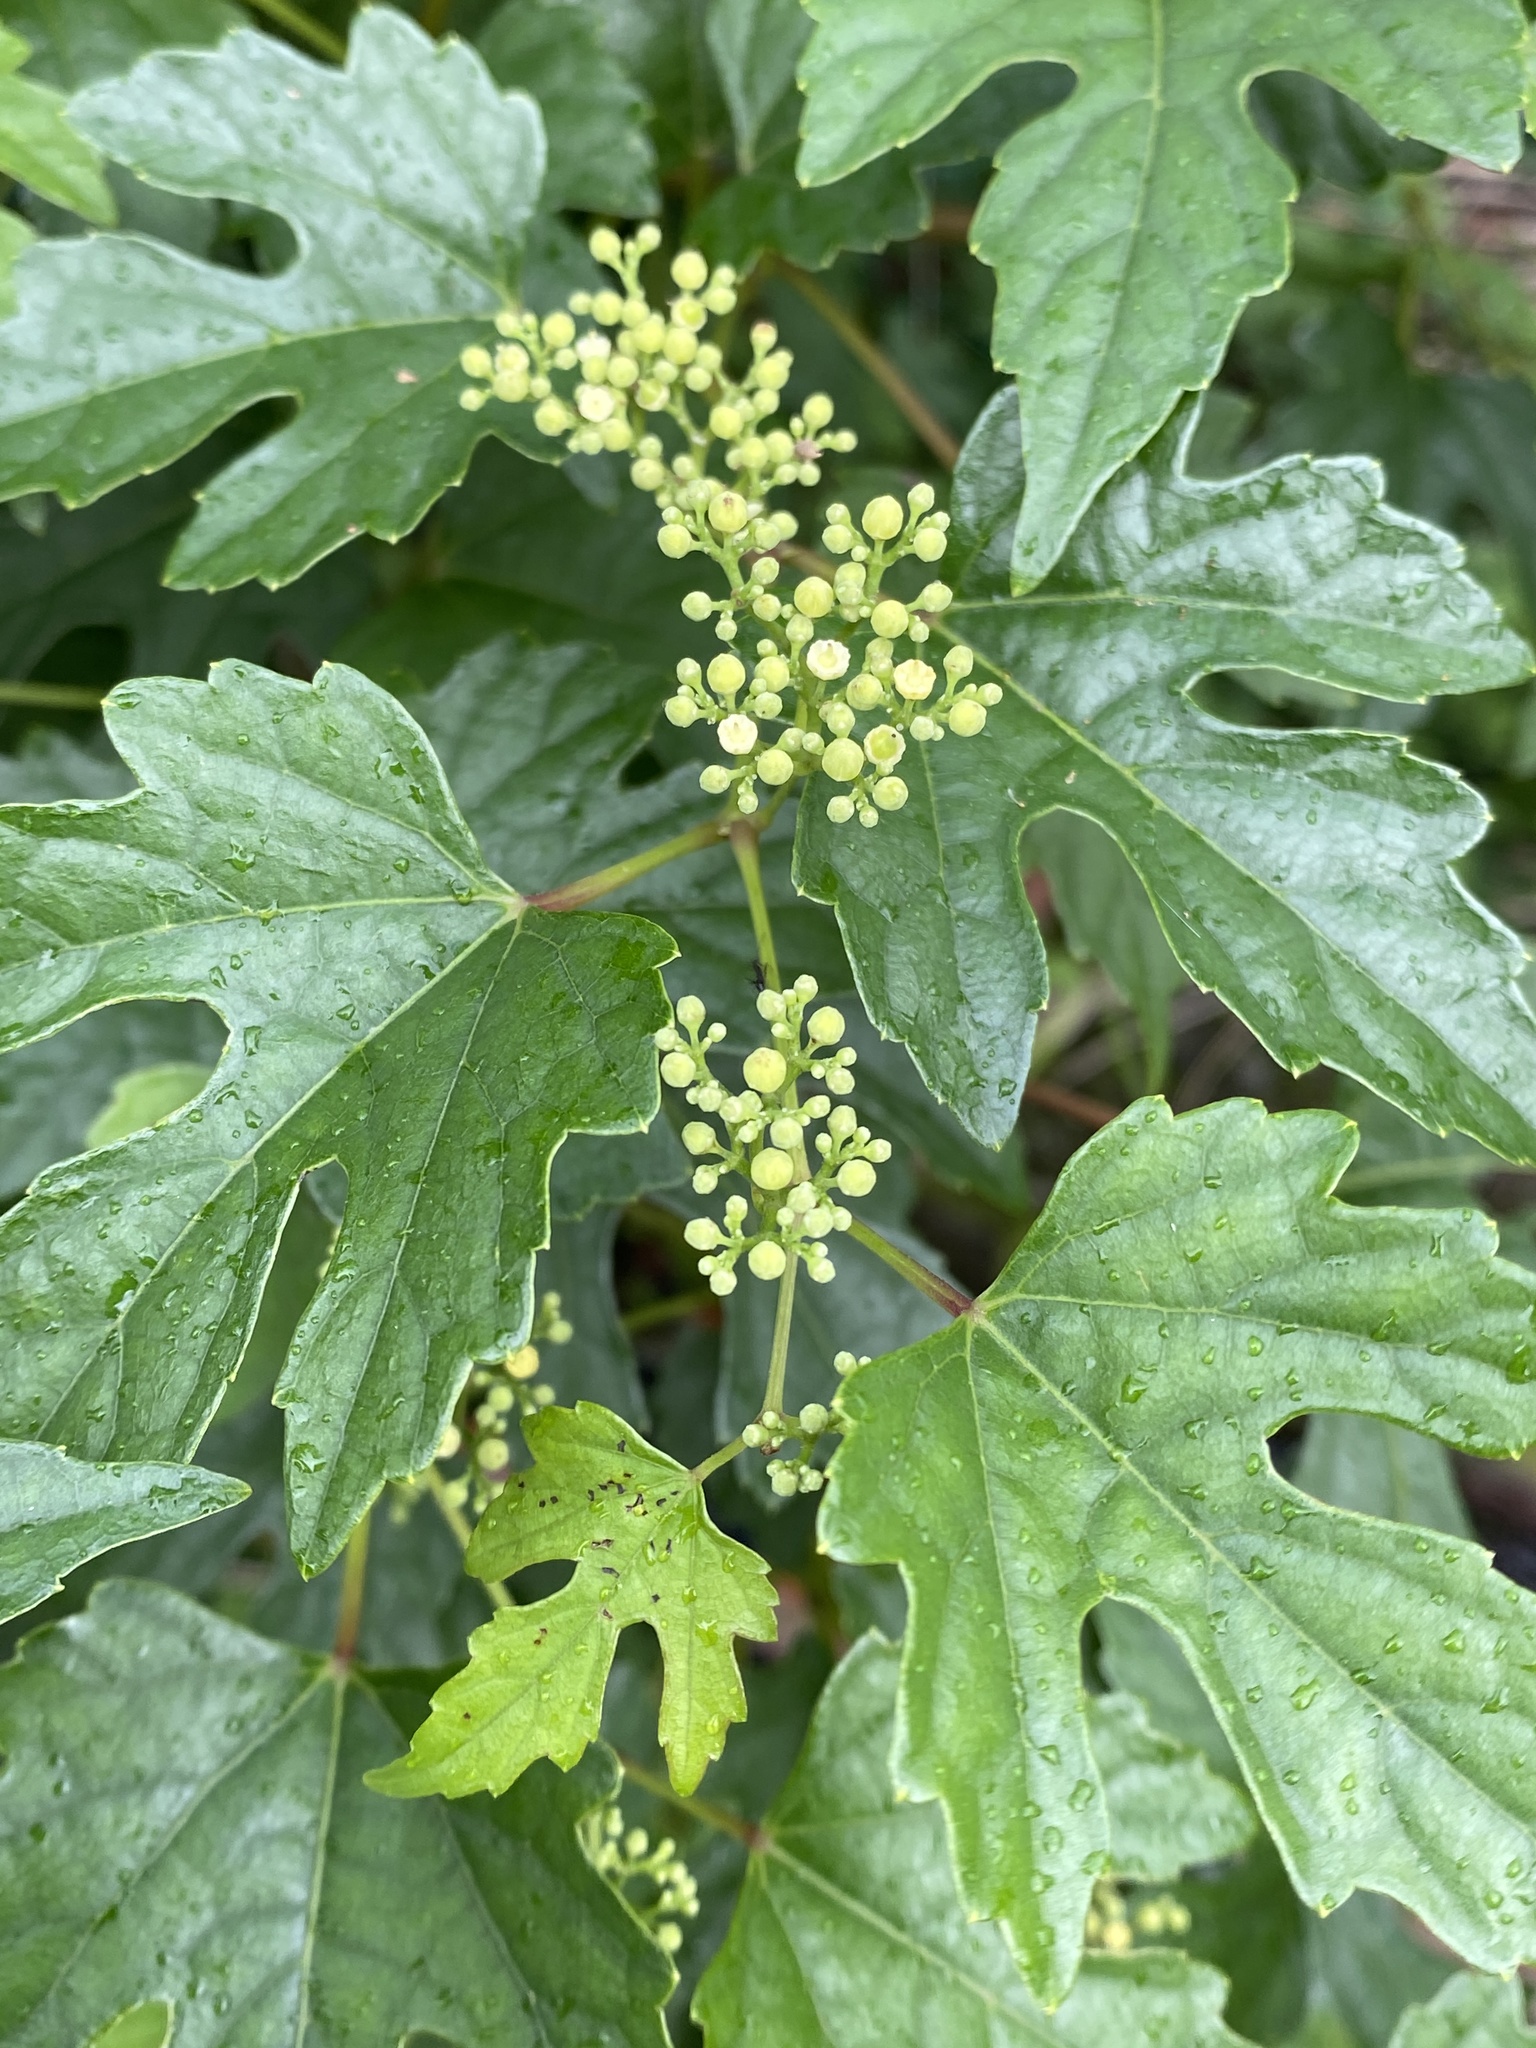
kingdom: Plantae
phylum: Tracheophyta
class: Magnoliopsida
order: Vitales
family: Vitaceae
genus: Ampelopsis
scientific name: Ampelopsis glandulosa
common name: Amur peppervine
